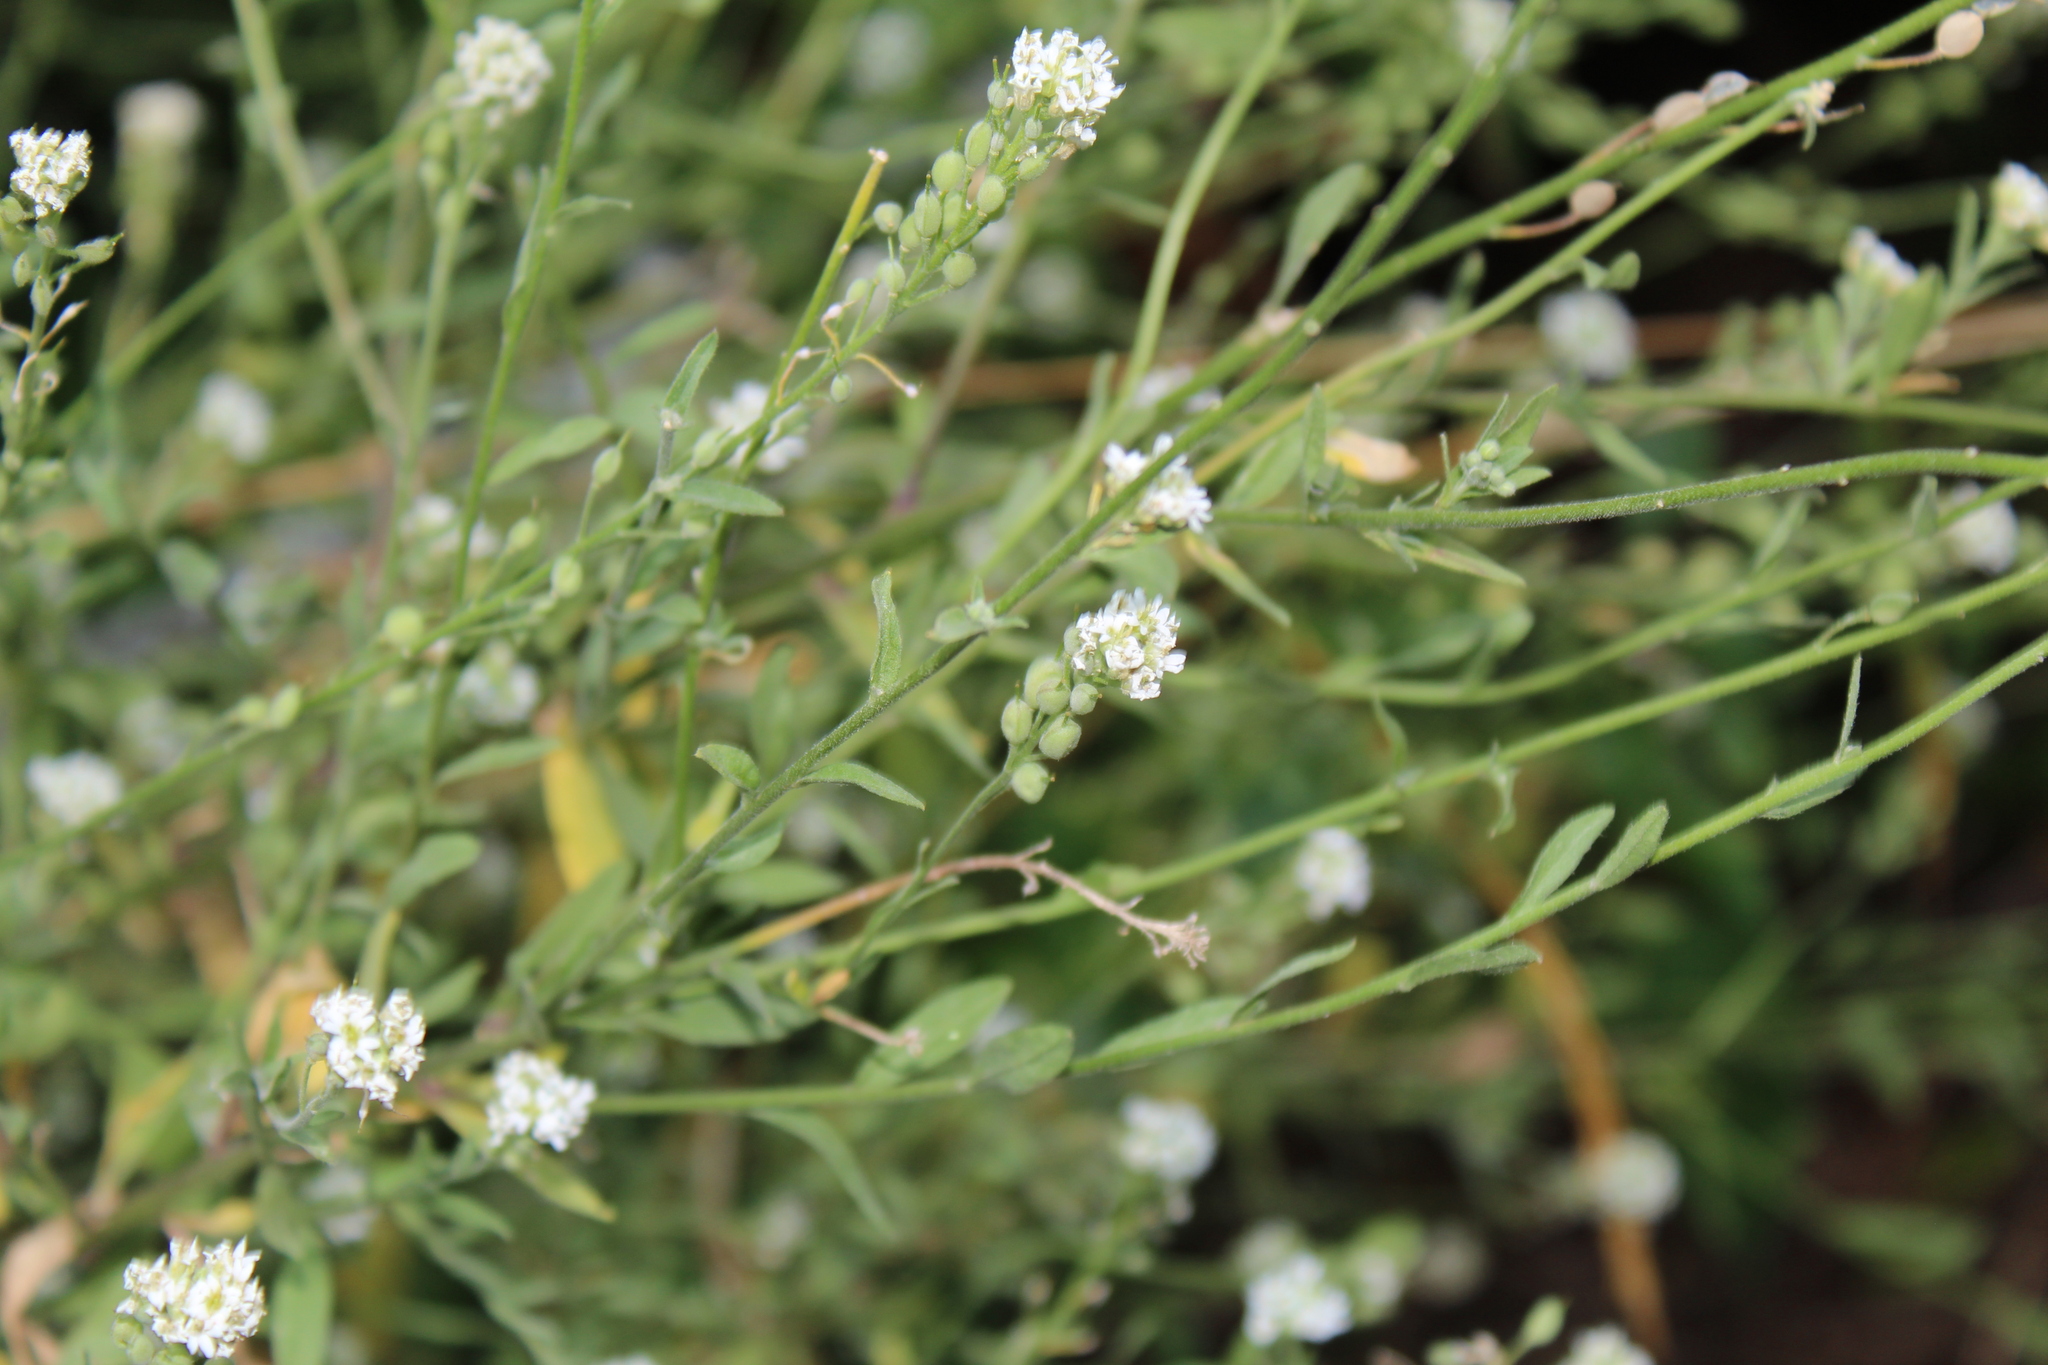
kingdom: Plantae
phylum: Tracheophyta
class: Magnoliopsida
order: Brassicales
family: Brassicaceae
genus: Berteroa
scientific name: Berteroa incana
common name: Hoary alison
